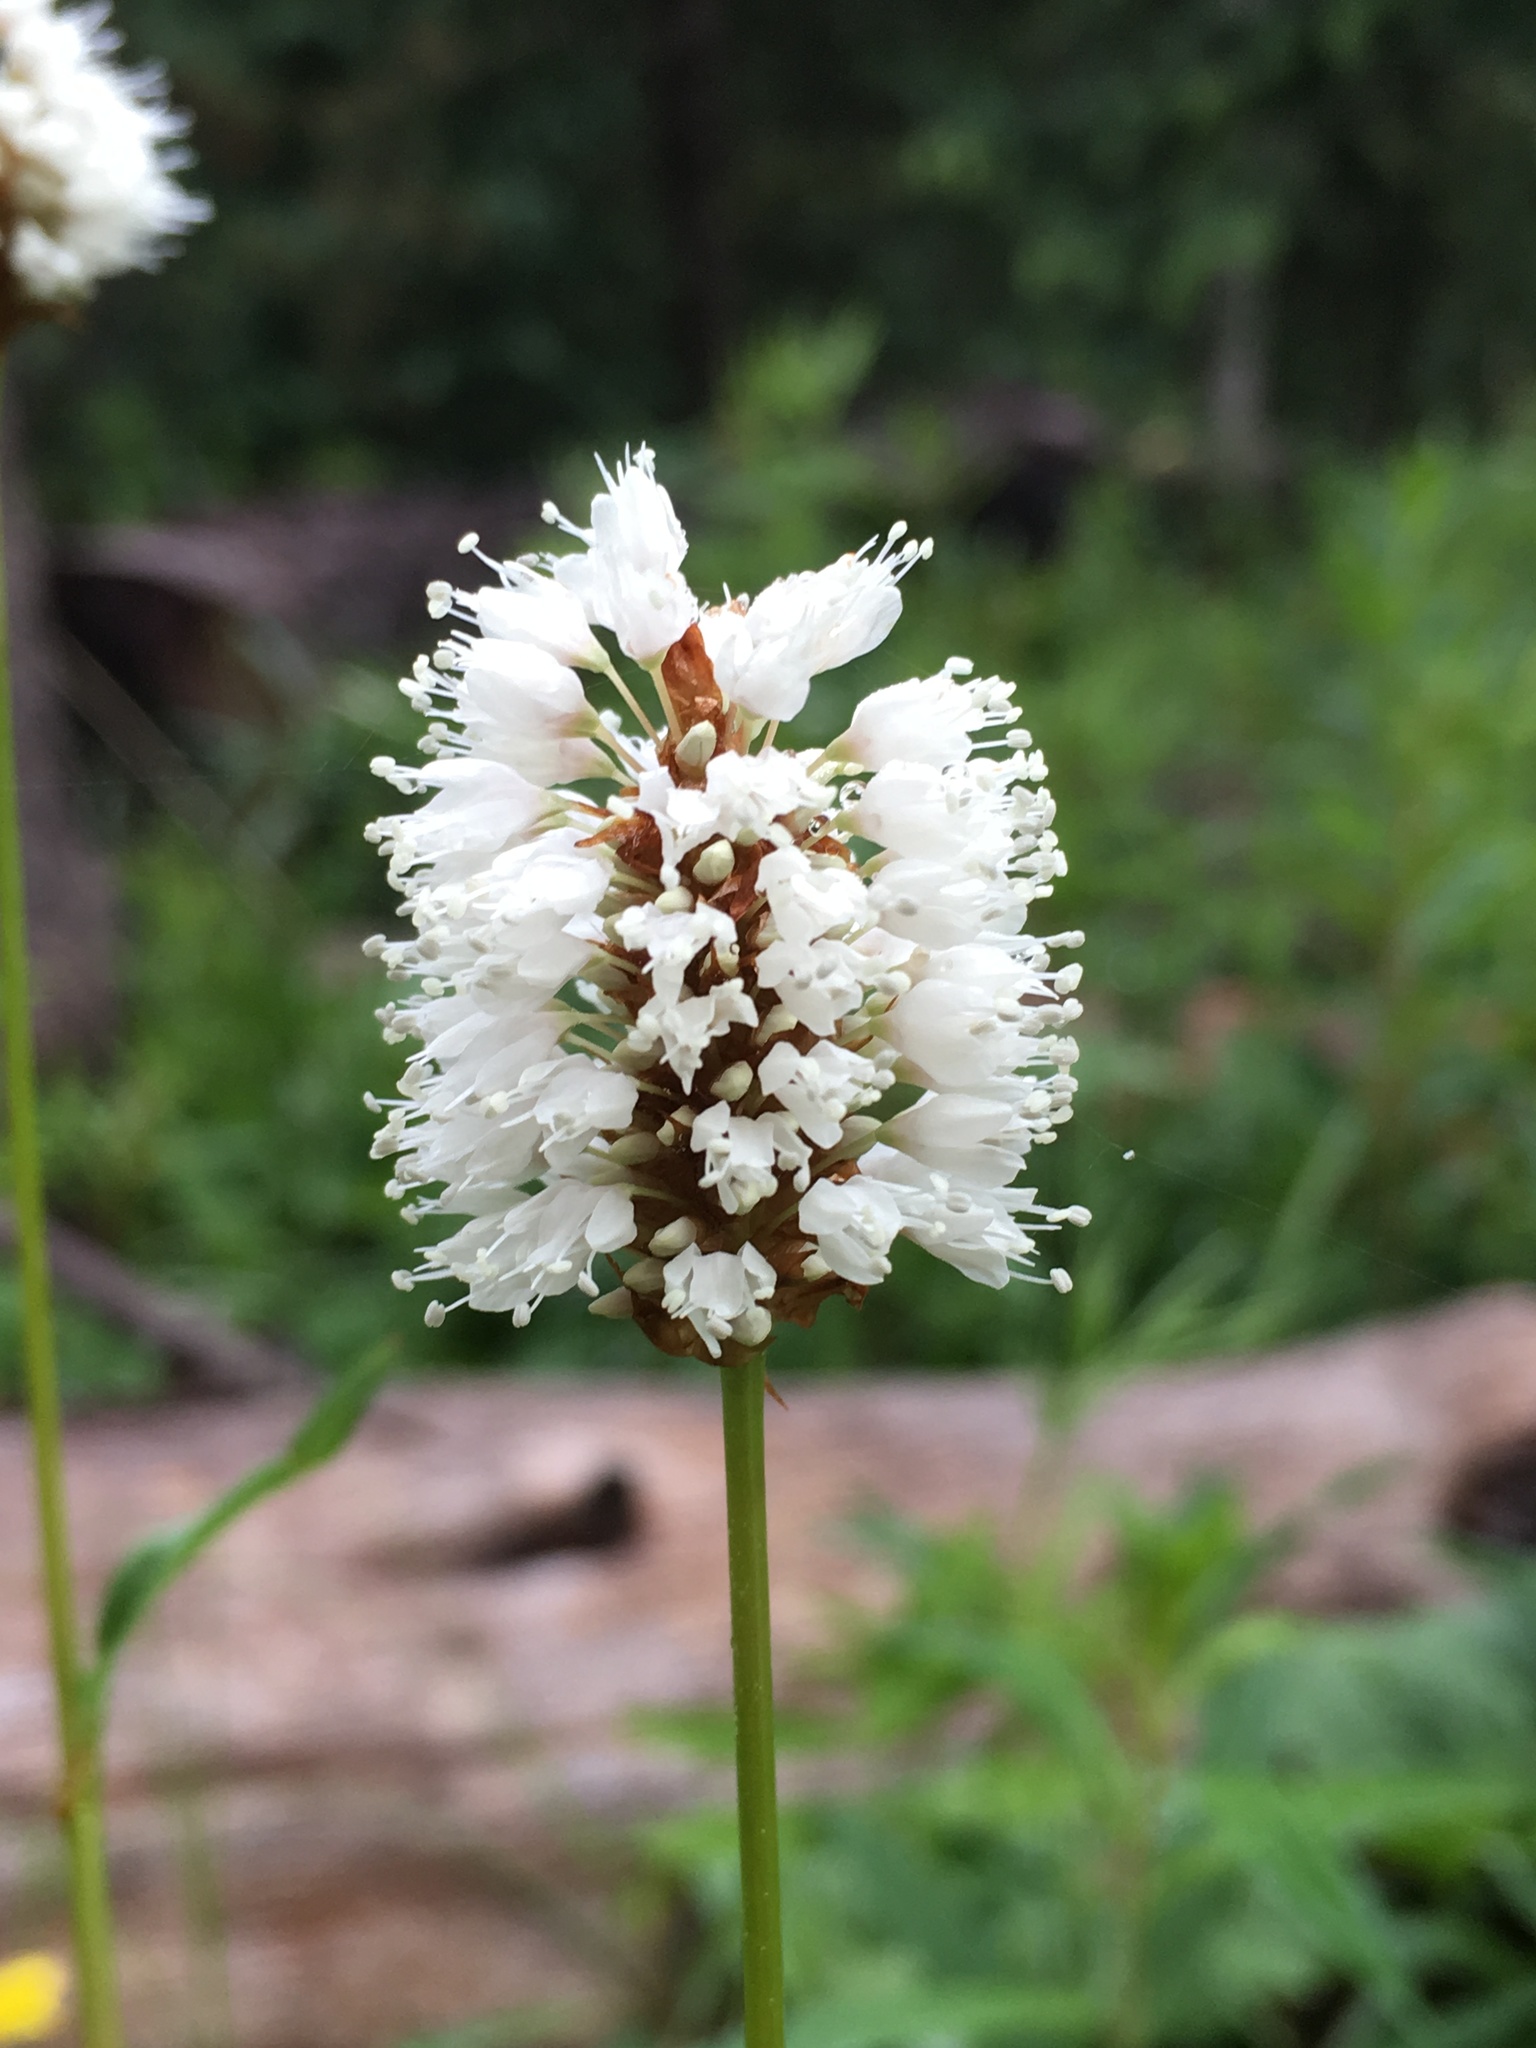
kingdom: Plantae
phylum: Tracheophyta
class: Magnoliopsida
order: Caryophyllales
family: Polygonaceae
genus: Bistorta
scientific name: Bistorta bistortoides
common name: American bistort
